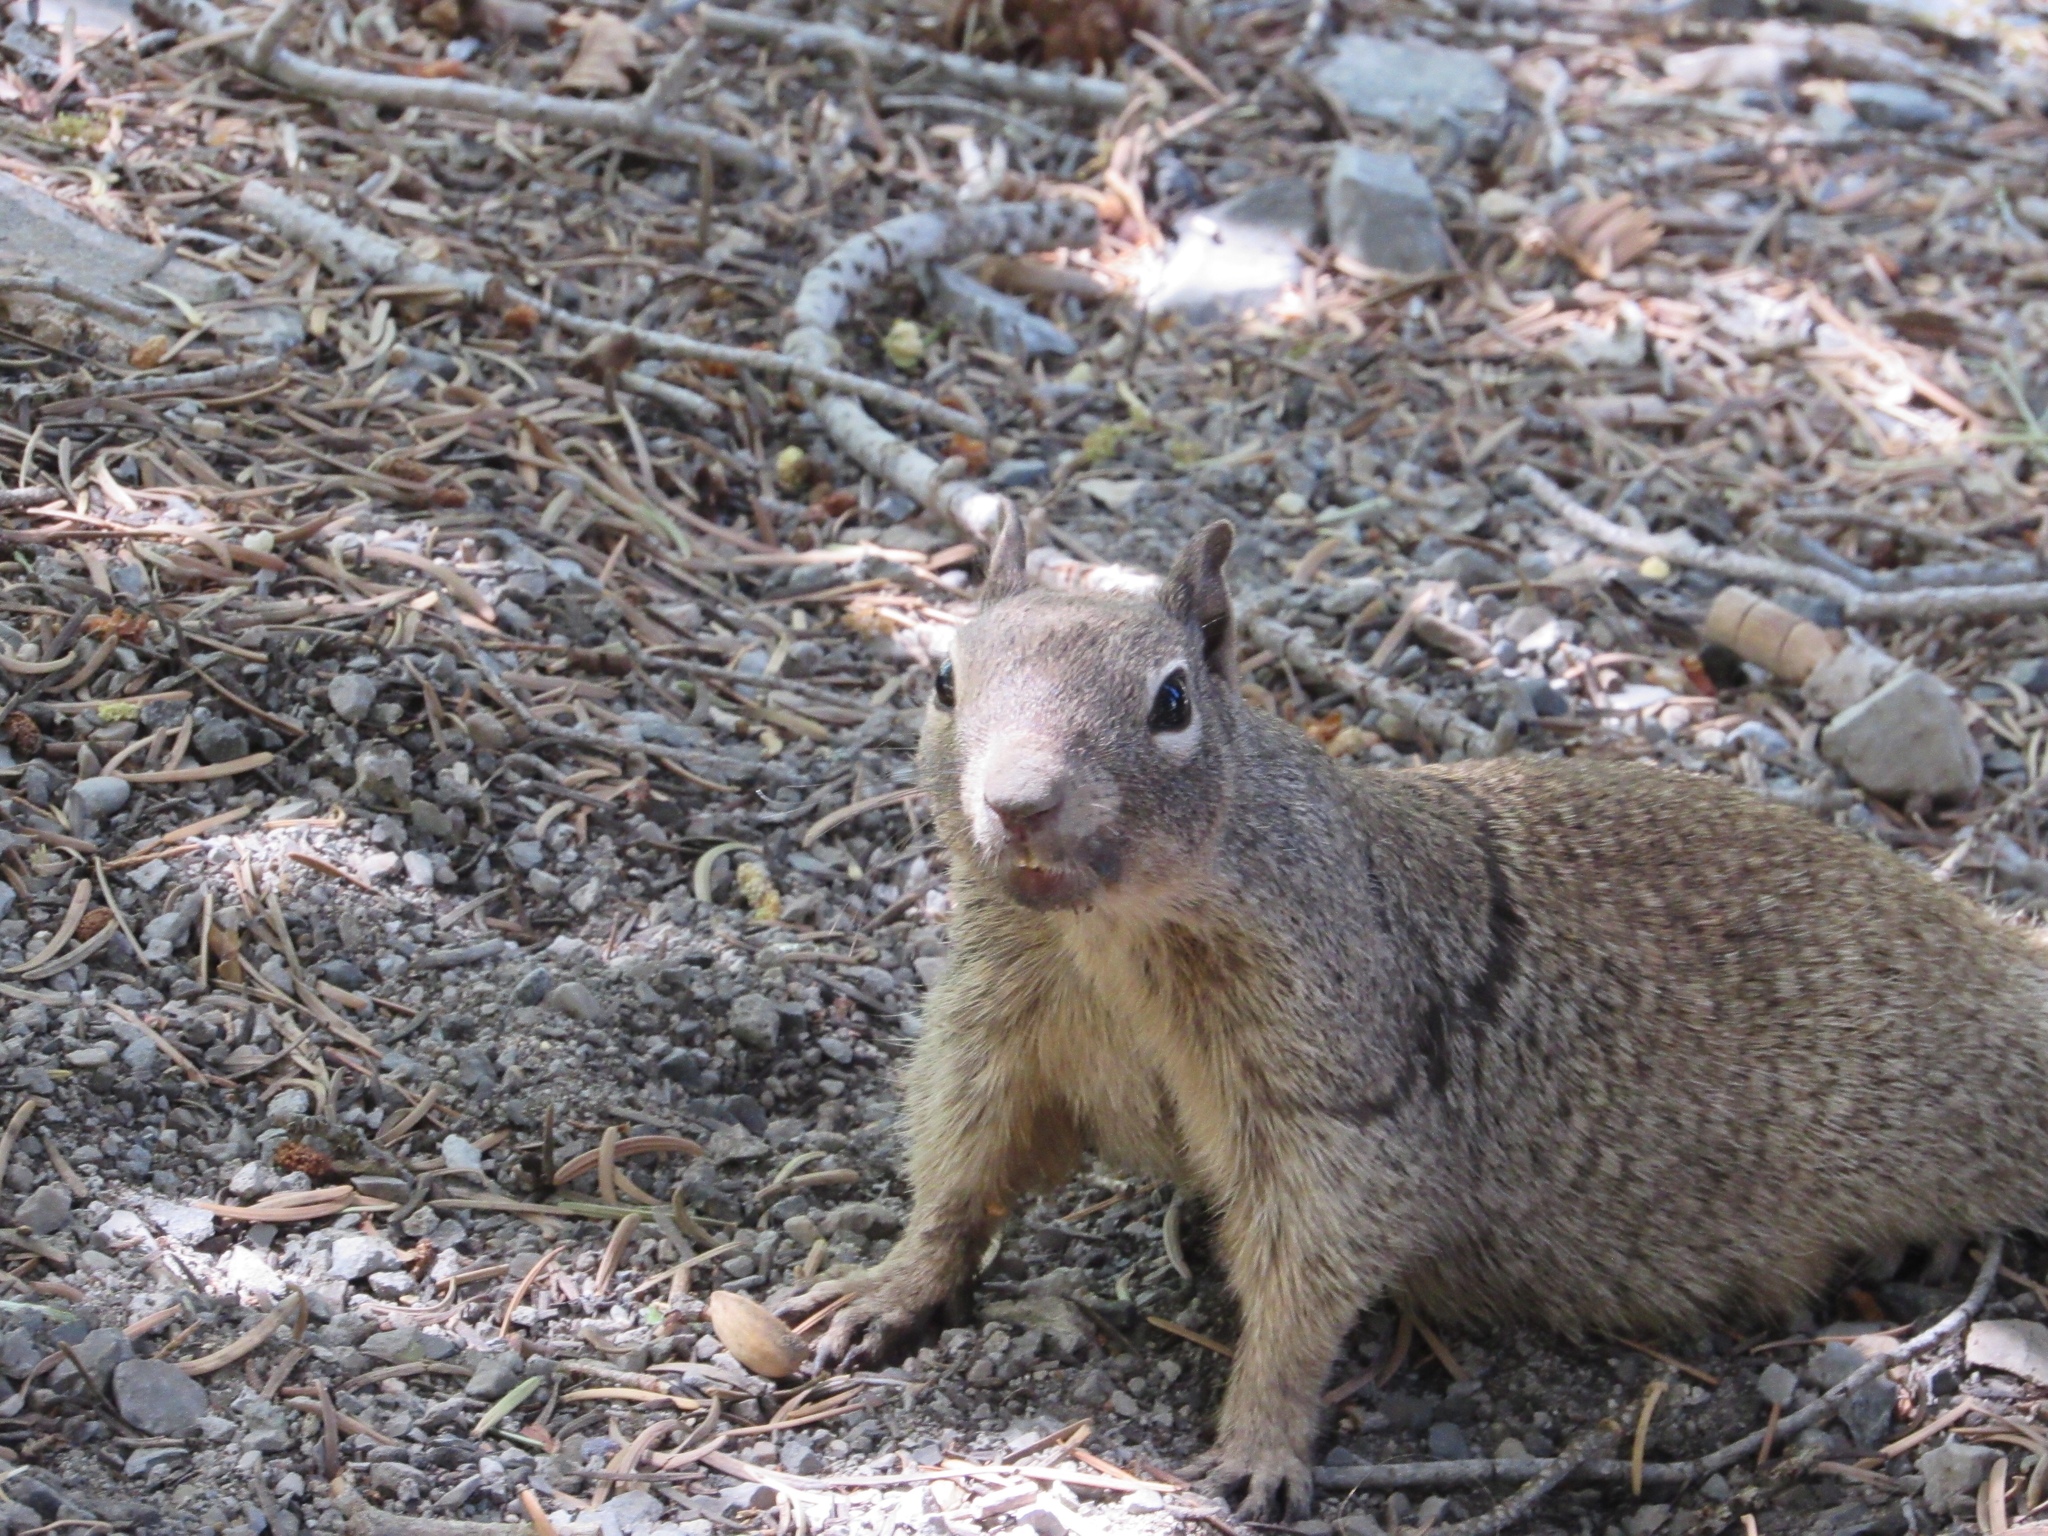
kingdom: Animalia
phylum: Chordata
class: Mammalia
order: Rodentia
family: Sciuridae
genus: Otospermophilus
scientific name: Otospermophilus variegatus
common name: Rock squirrel
